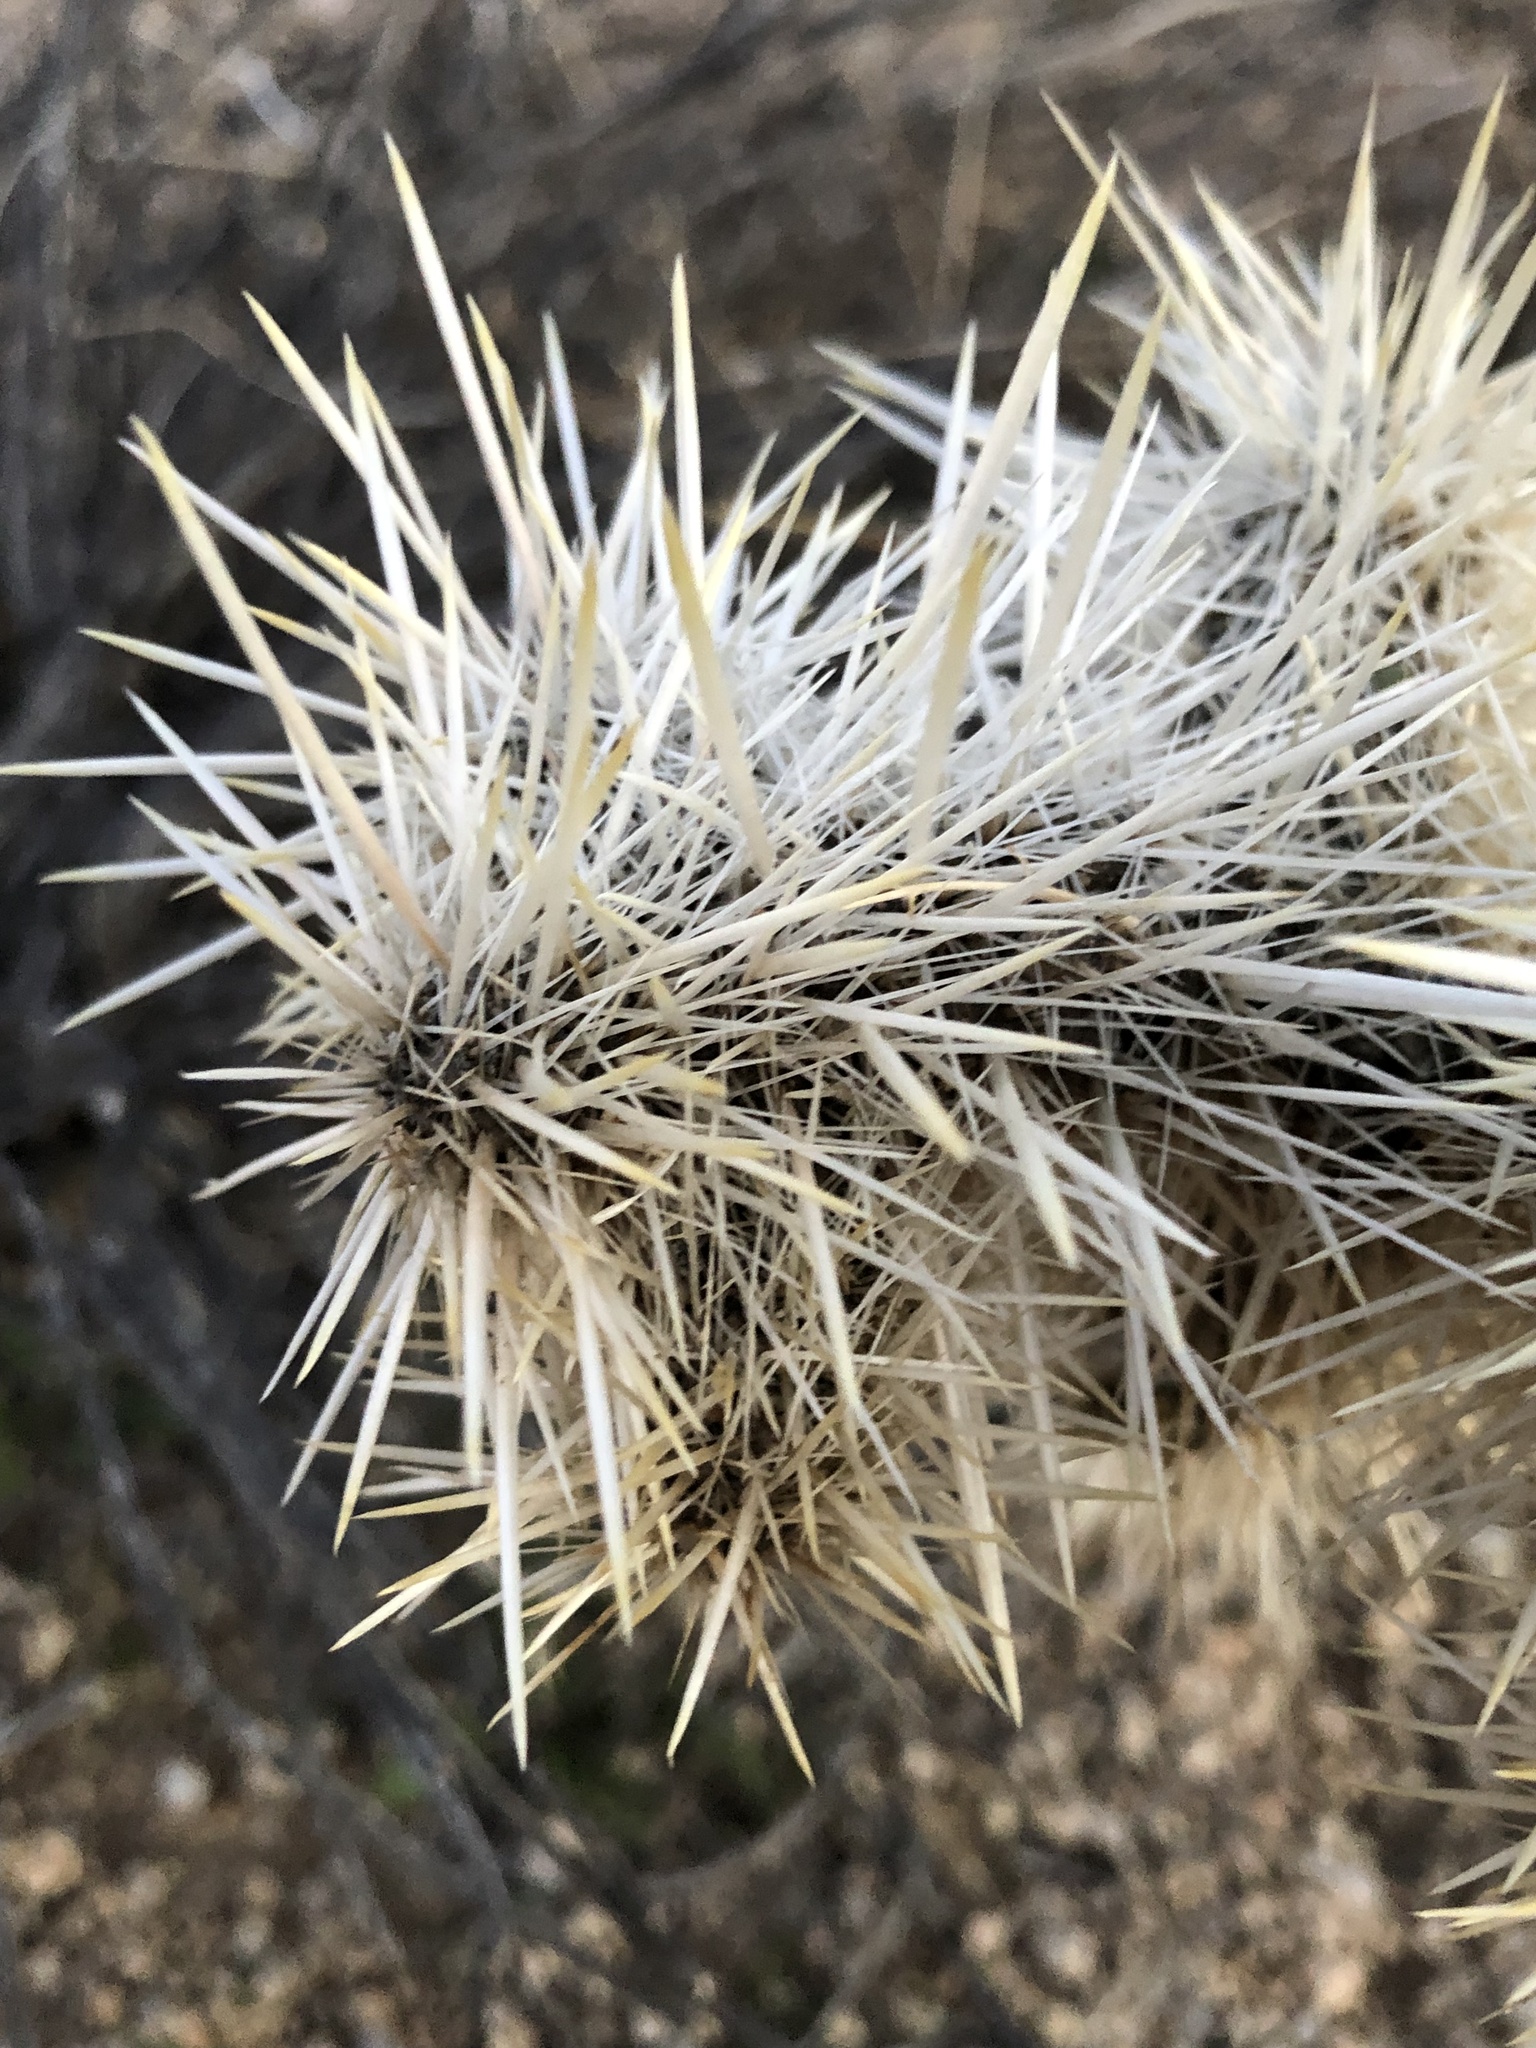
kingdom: Plantae
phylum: Tracheophyta
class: Magnoliopsida
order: Caryophyllales
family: Cactaceae
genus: Cylindropuntia
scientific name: Cylindropuntia echinocarpa
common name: Ground cholla
